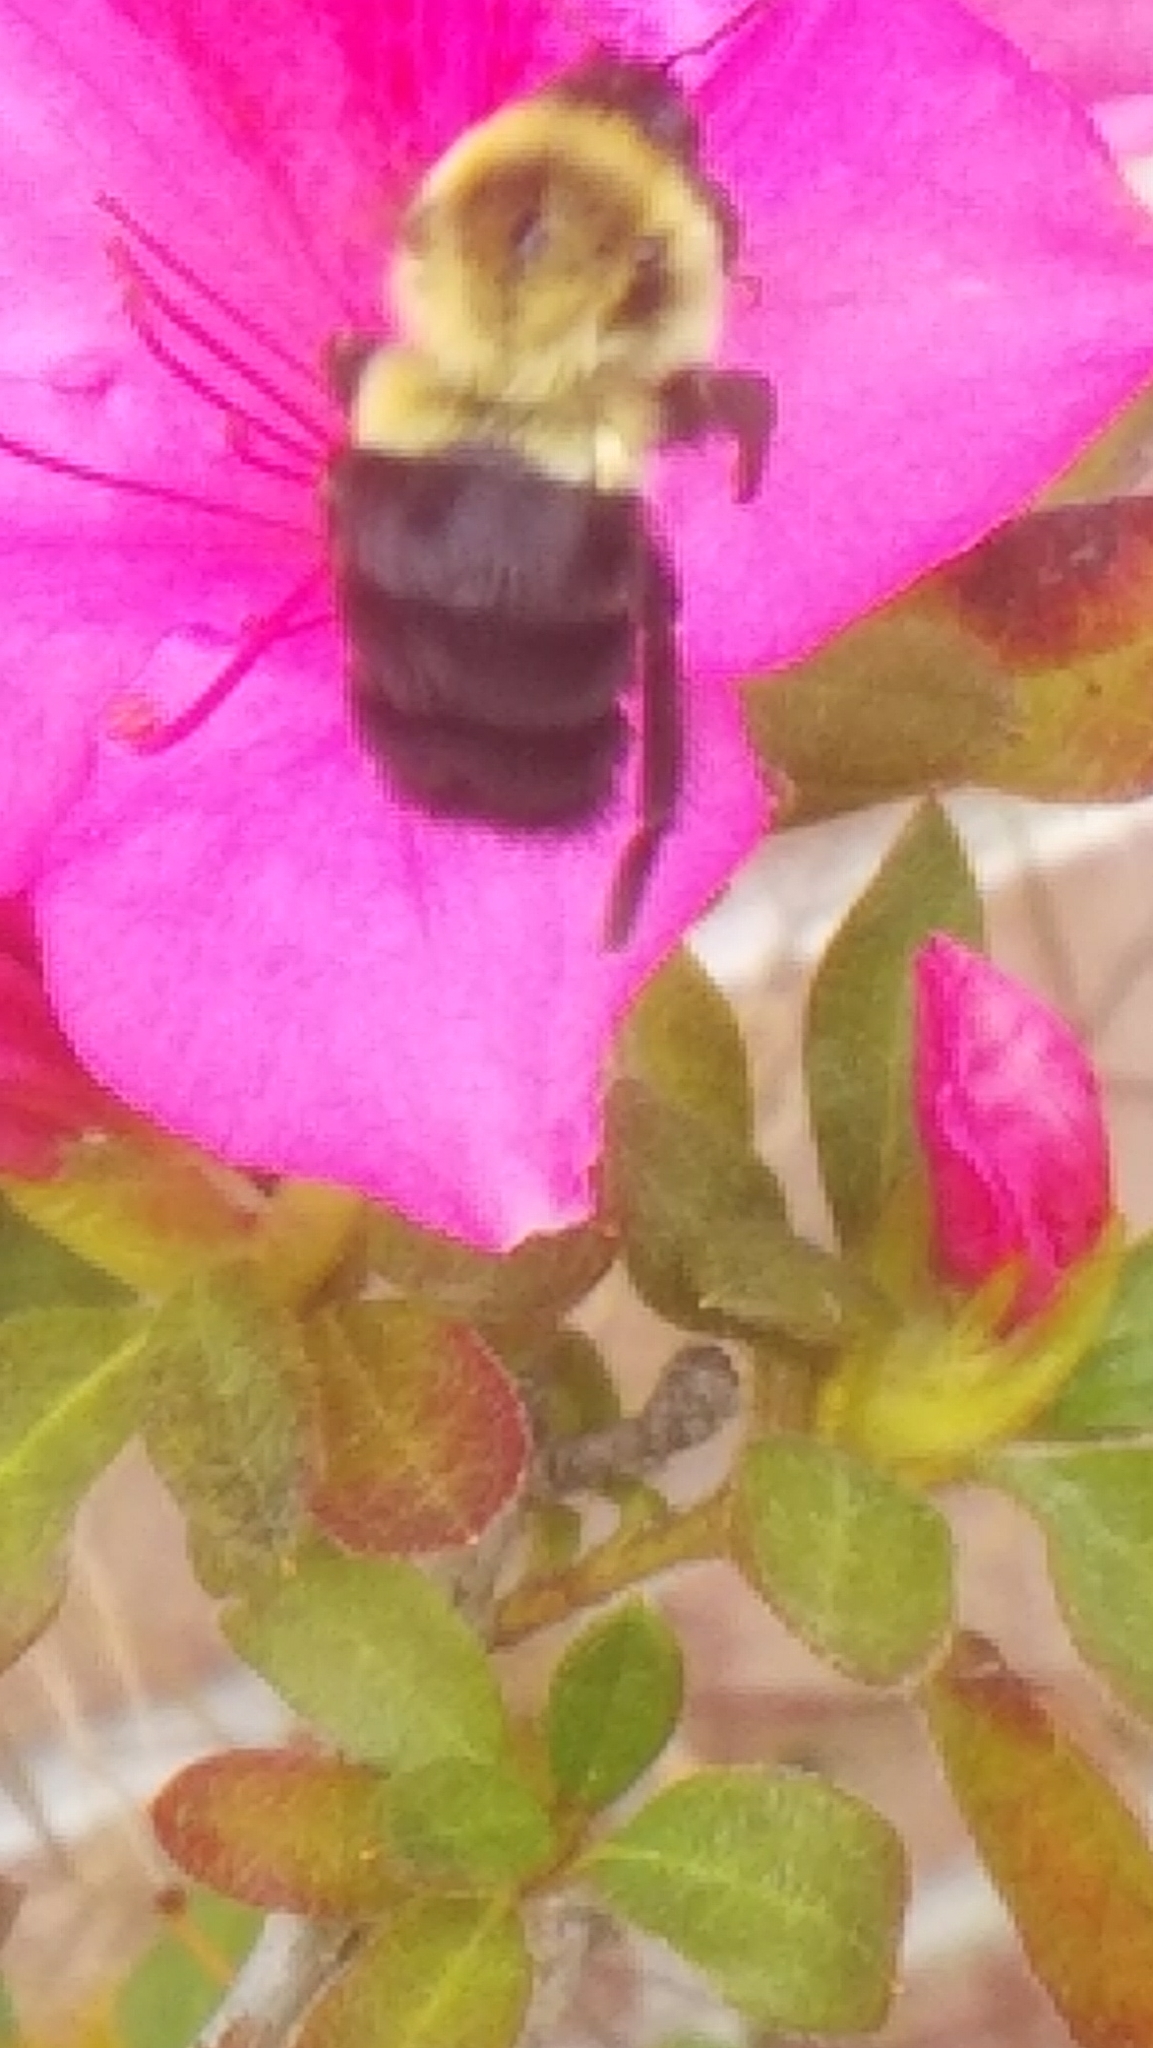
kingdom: Animalia
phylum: Arthropoda
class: Insecta
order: Hymenoptera
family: Apidae
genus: Bombus
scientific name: Bombus impatiens
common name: Common eastern bumble bee
